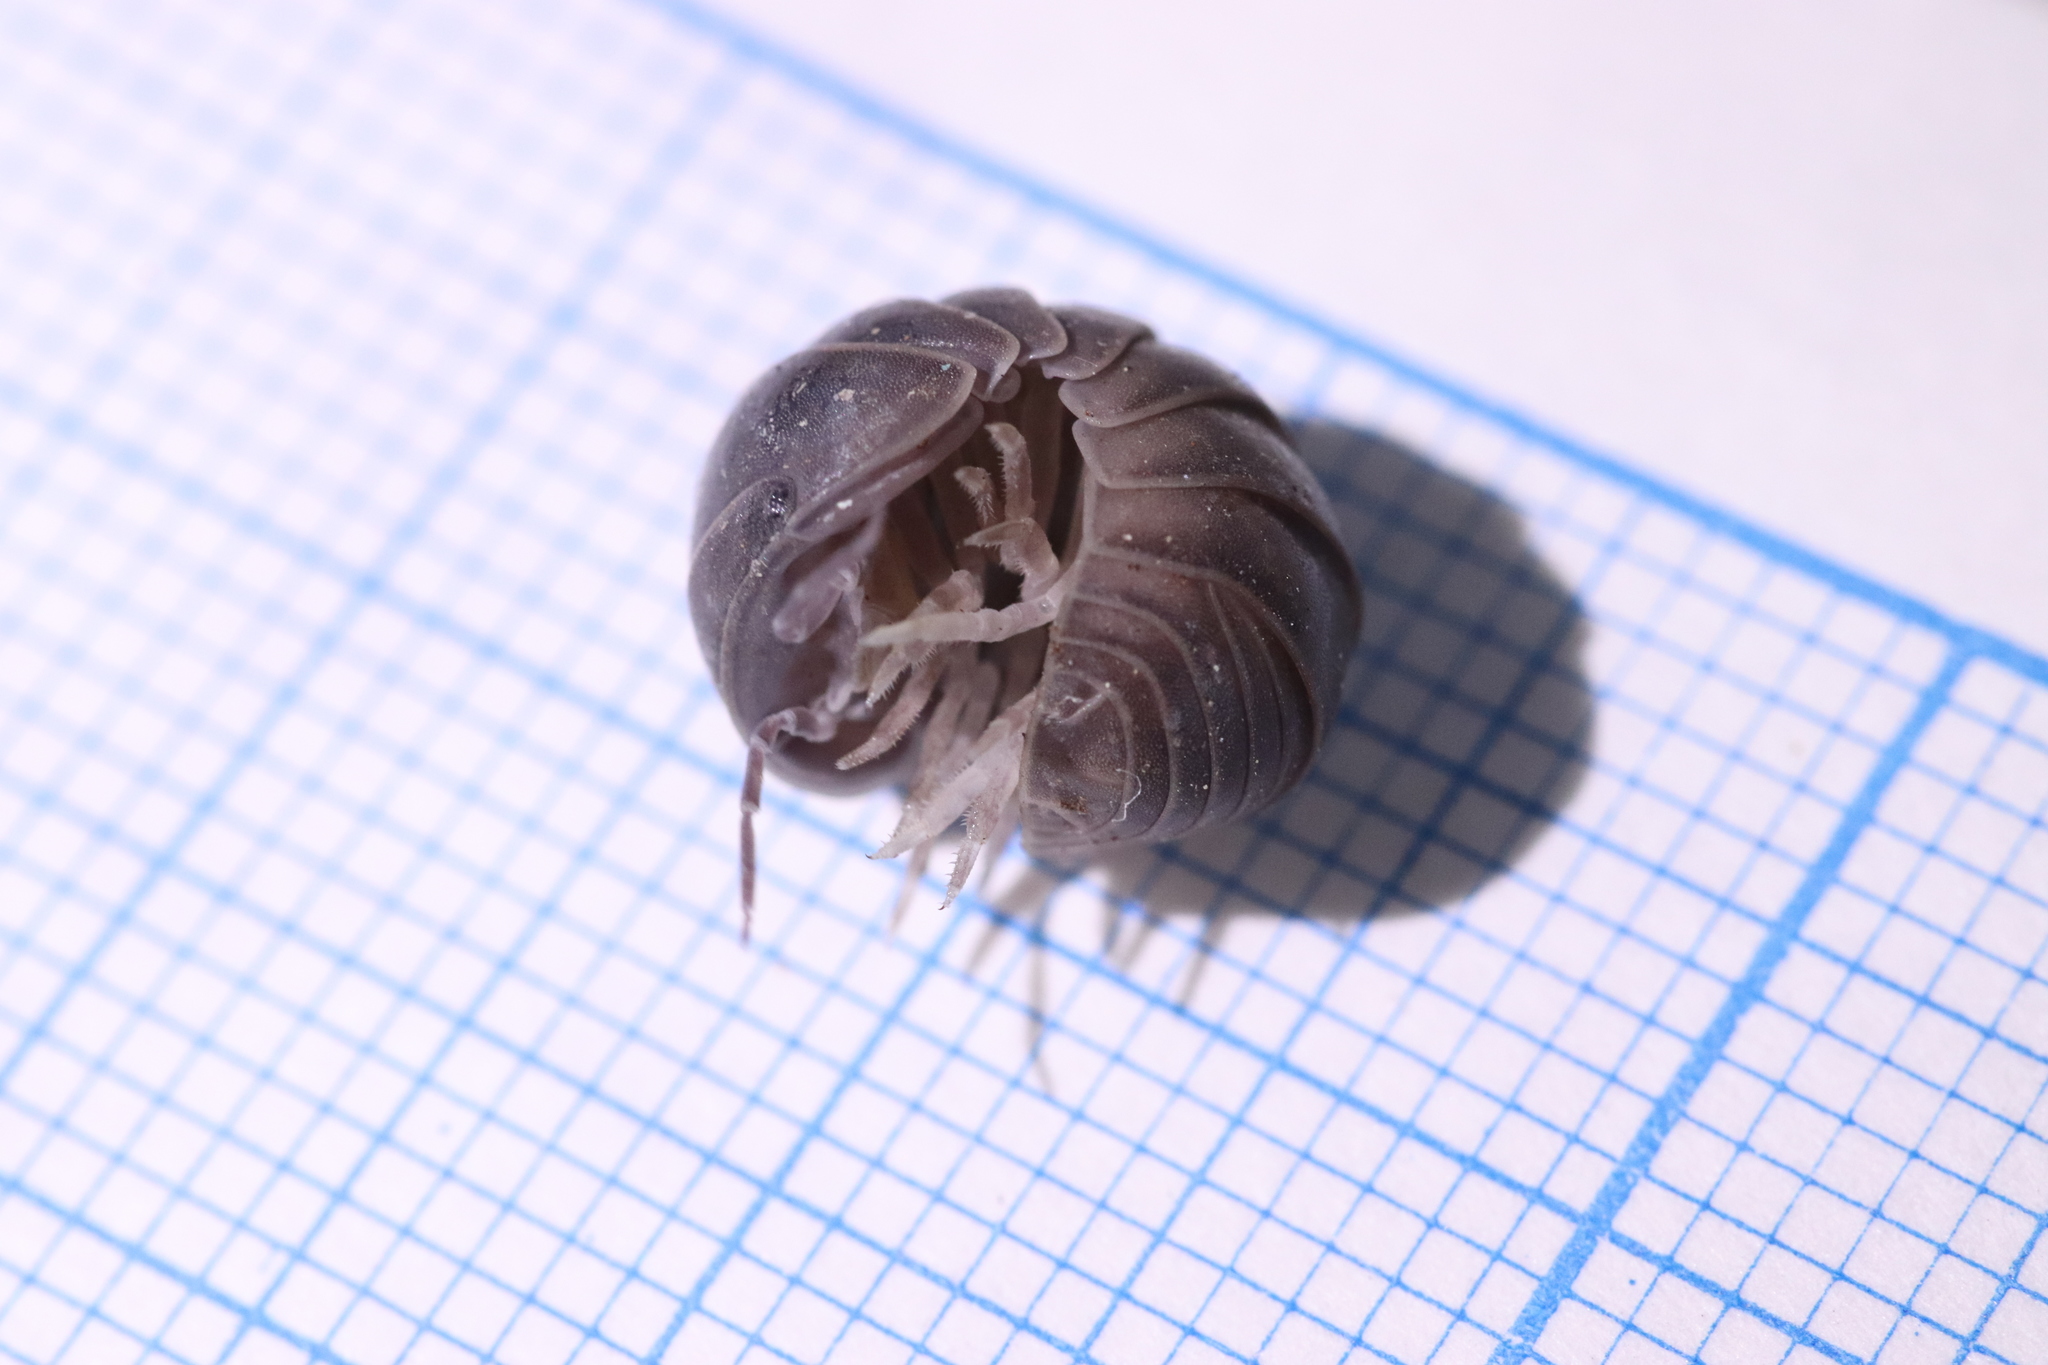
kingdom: Animalia
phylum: Arthropoda
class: Malacostraca
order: Isopoda
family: Armadillidae
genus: Armadillo
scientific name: Armadillo officinalis
